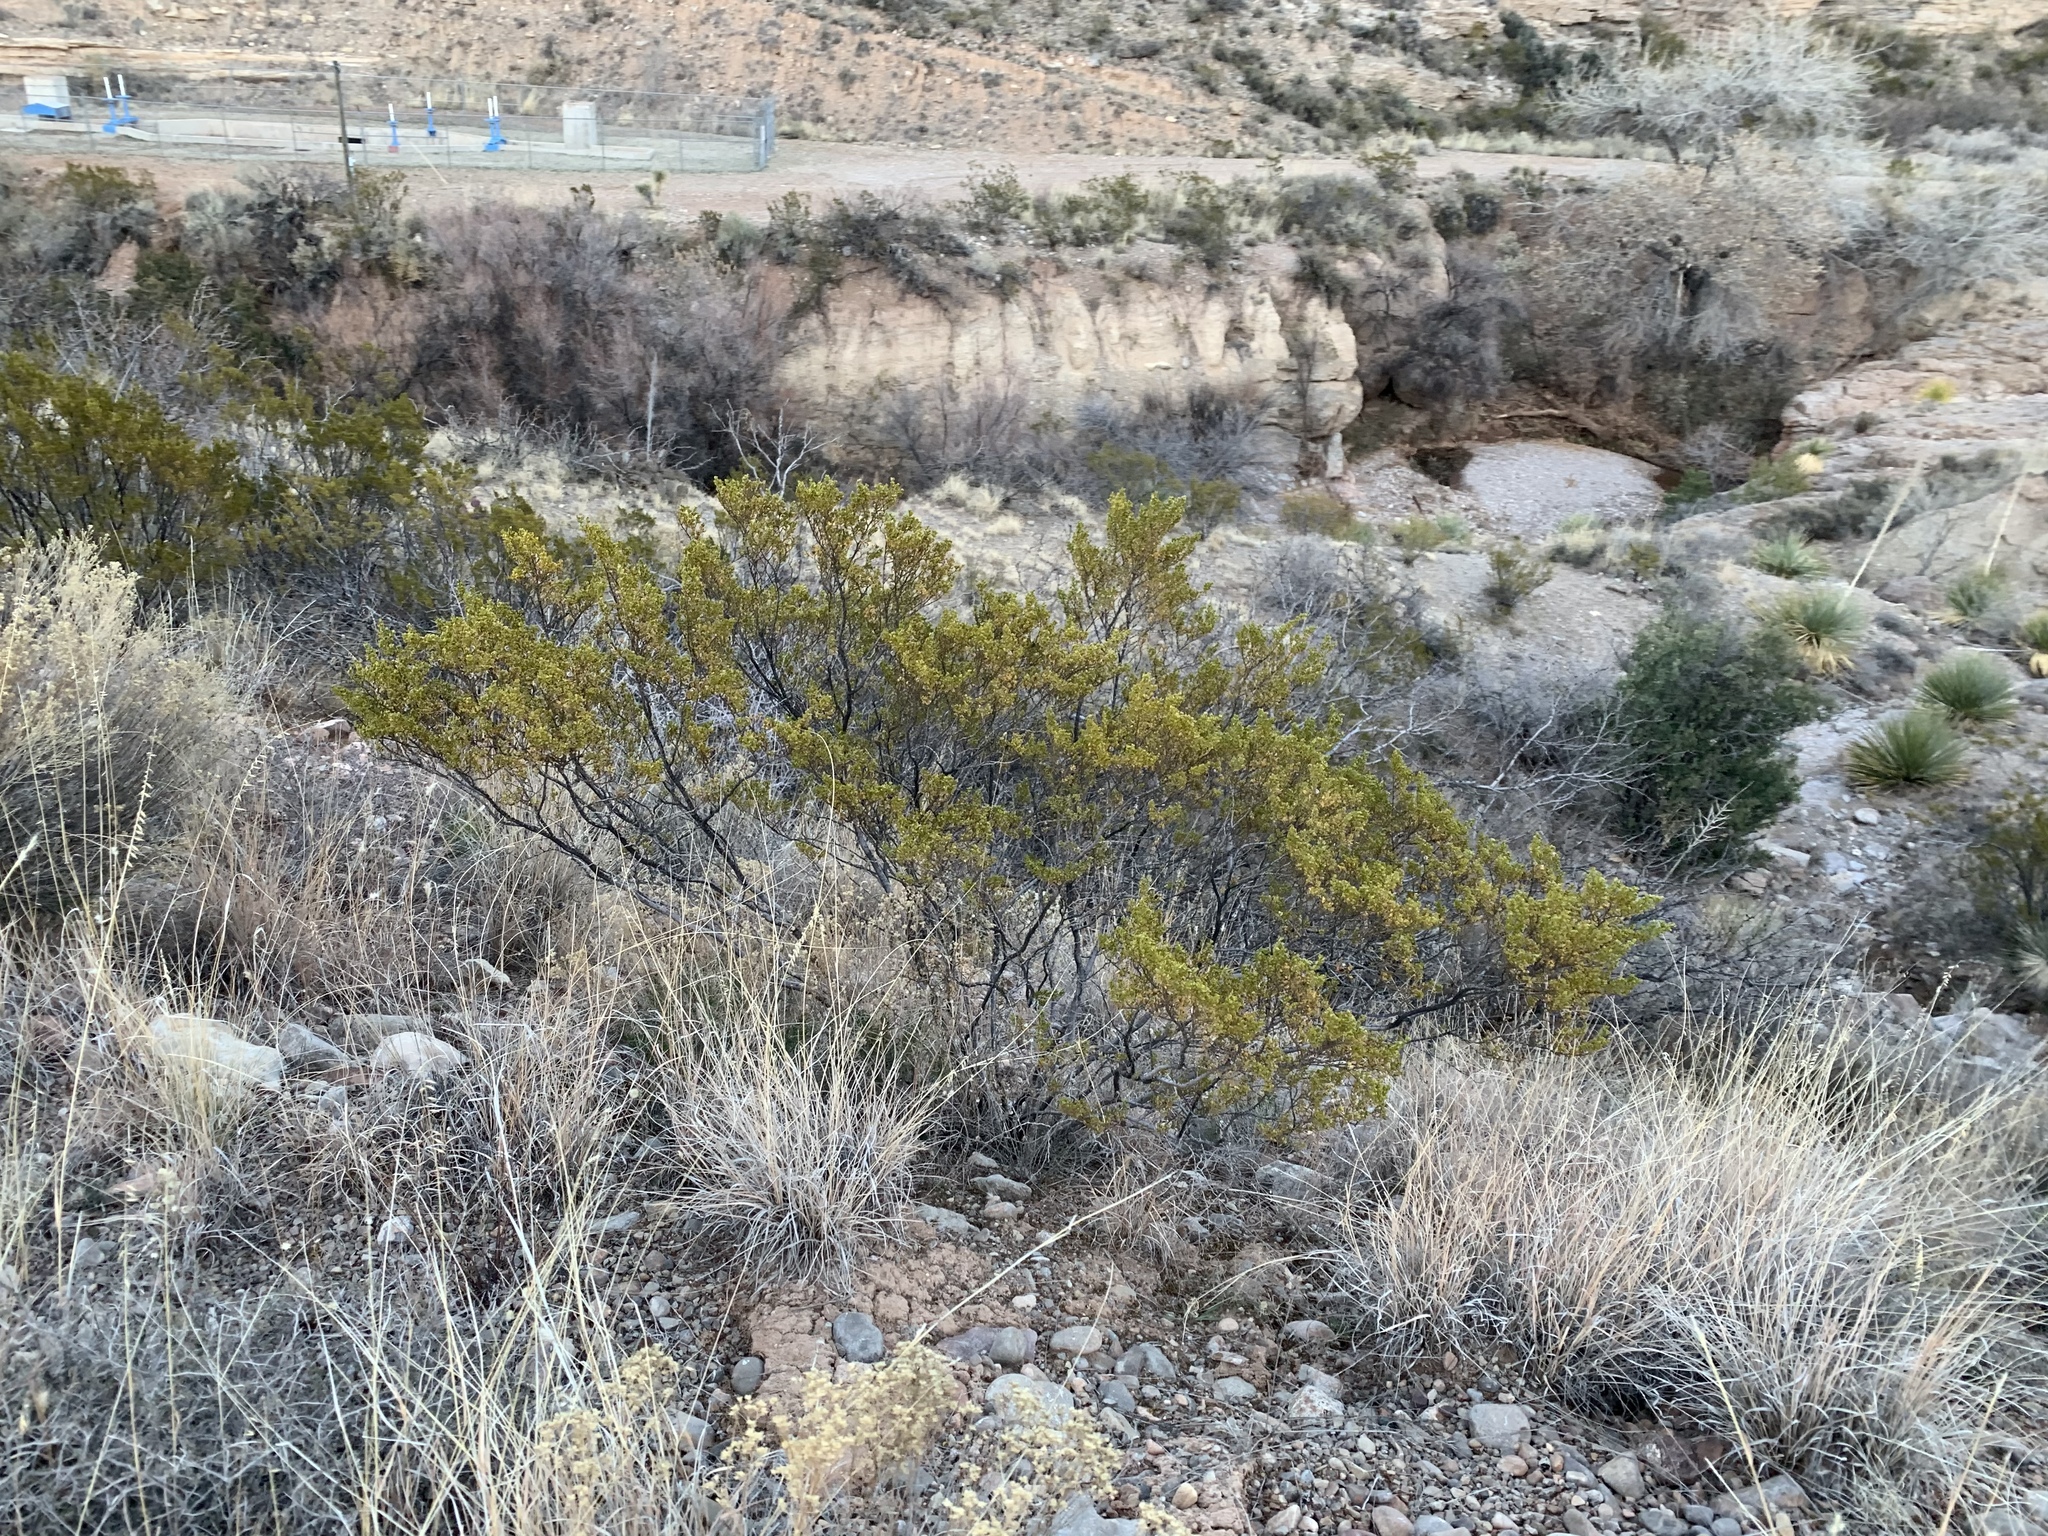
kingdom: Plantae
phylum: Tracheophyta
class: Magnoliopsida
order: Zygophyllales
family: Zygophyllaceae
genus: Larrea
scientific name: Larrea tridentata
